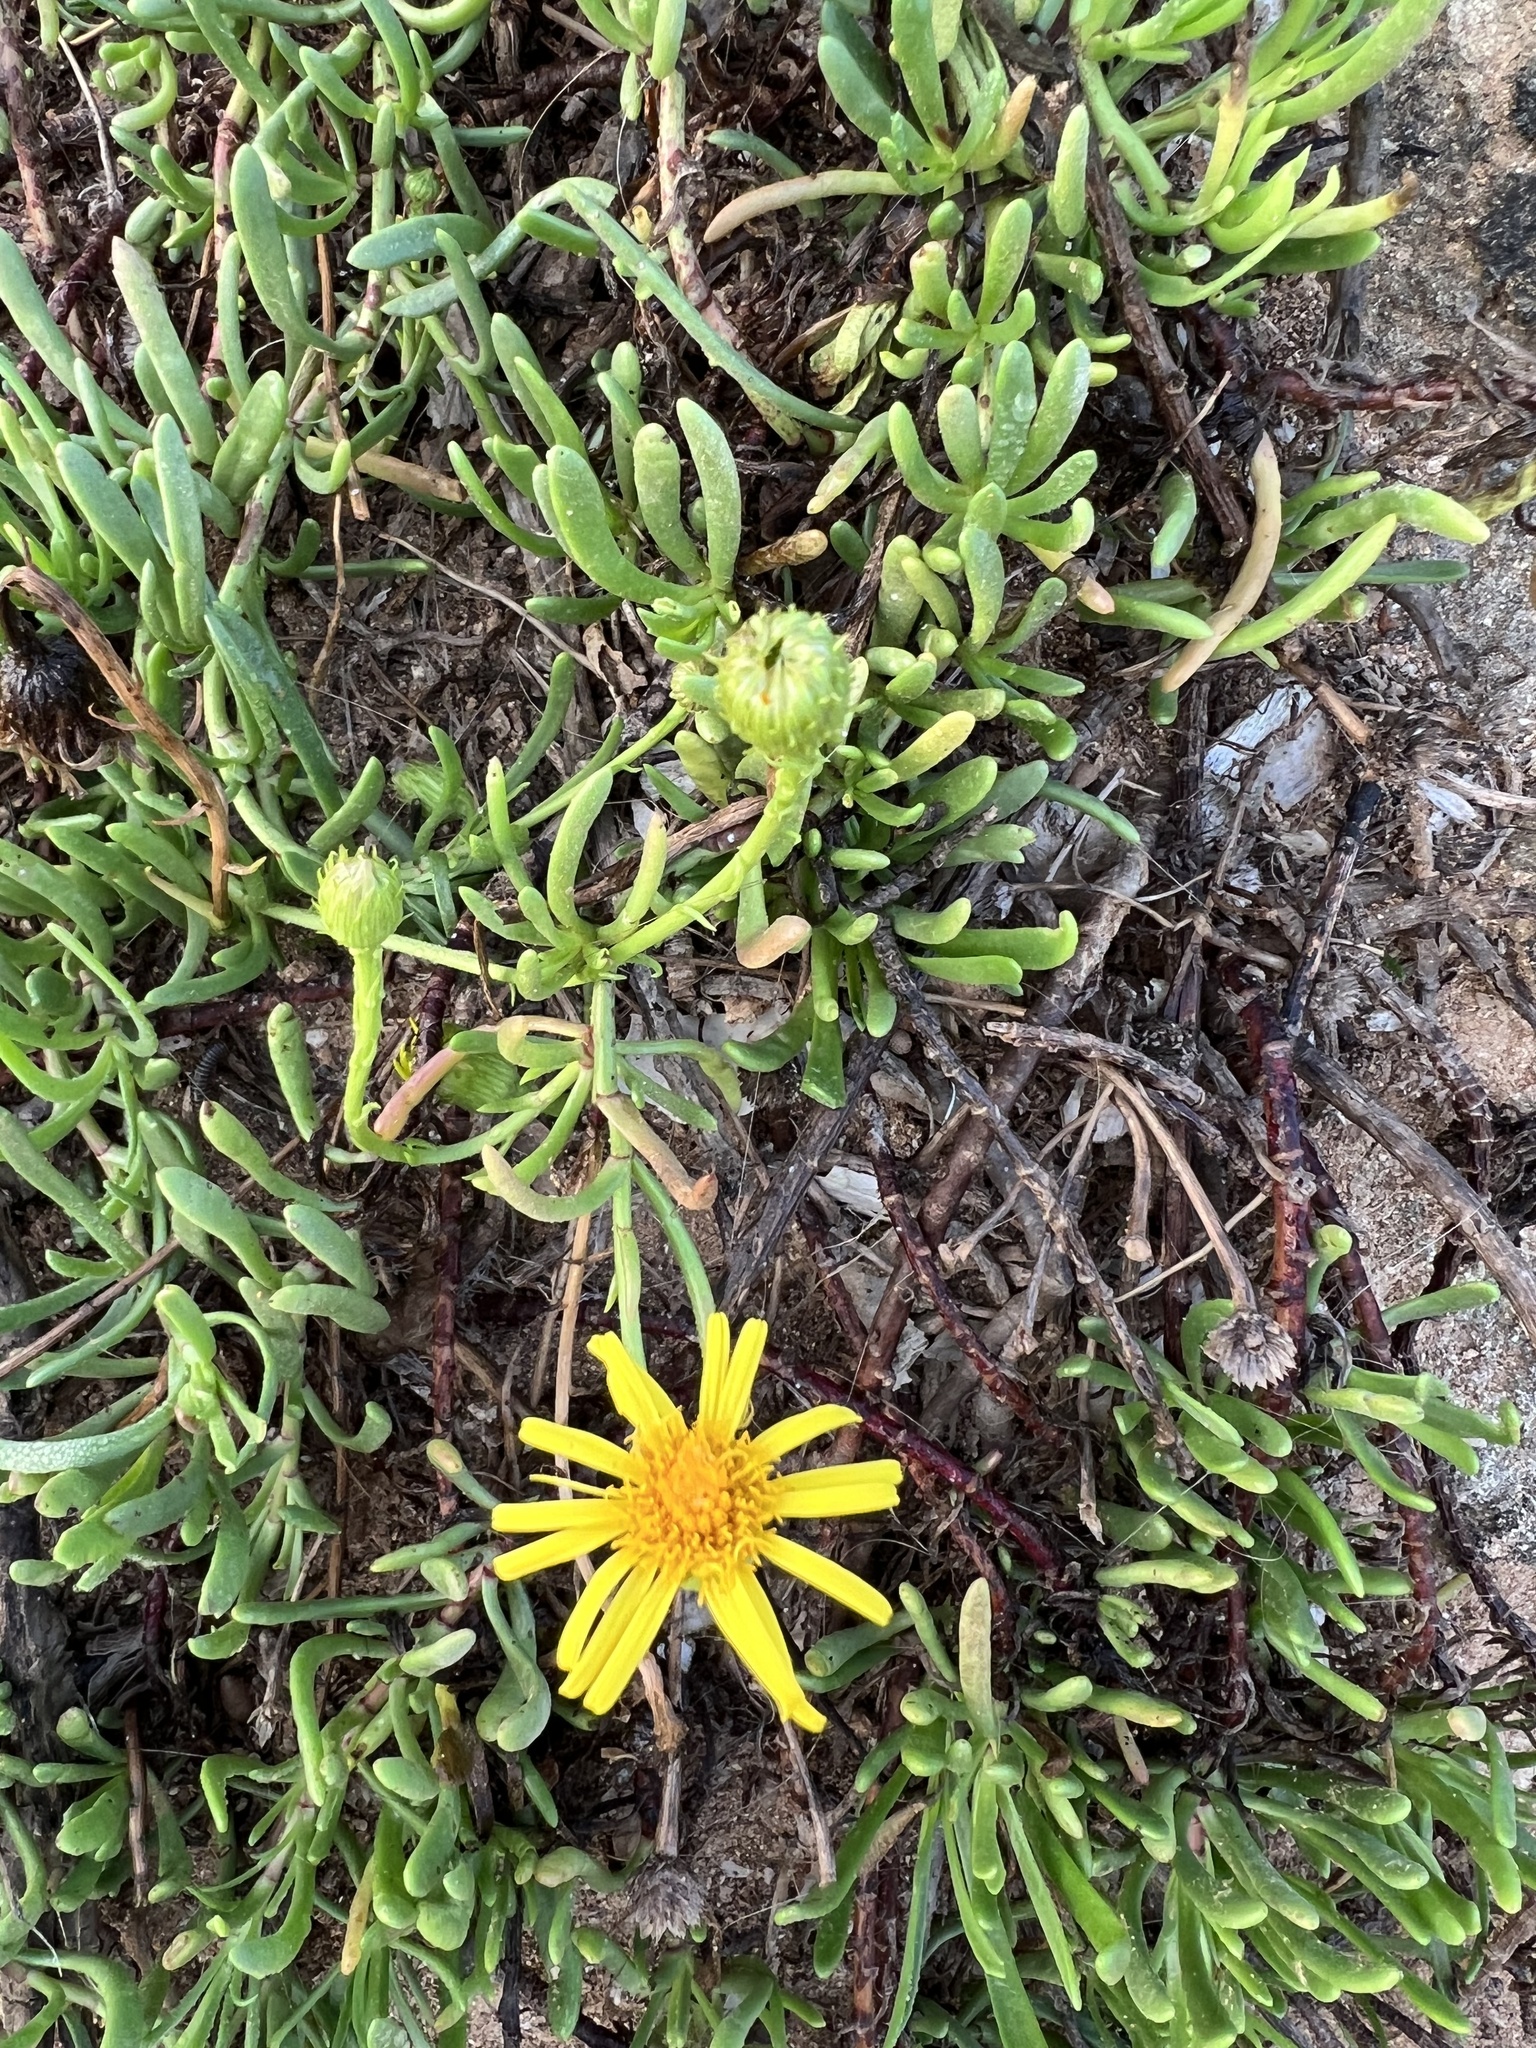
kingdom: Plantae
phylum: Tracheophyta
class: Magnoliopsida
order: Asterales
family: Asteraceae
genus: Limbarda
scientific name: Limbarda crithmoides
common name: Golden samphire
